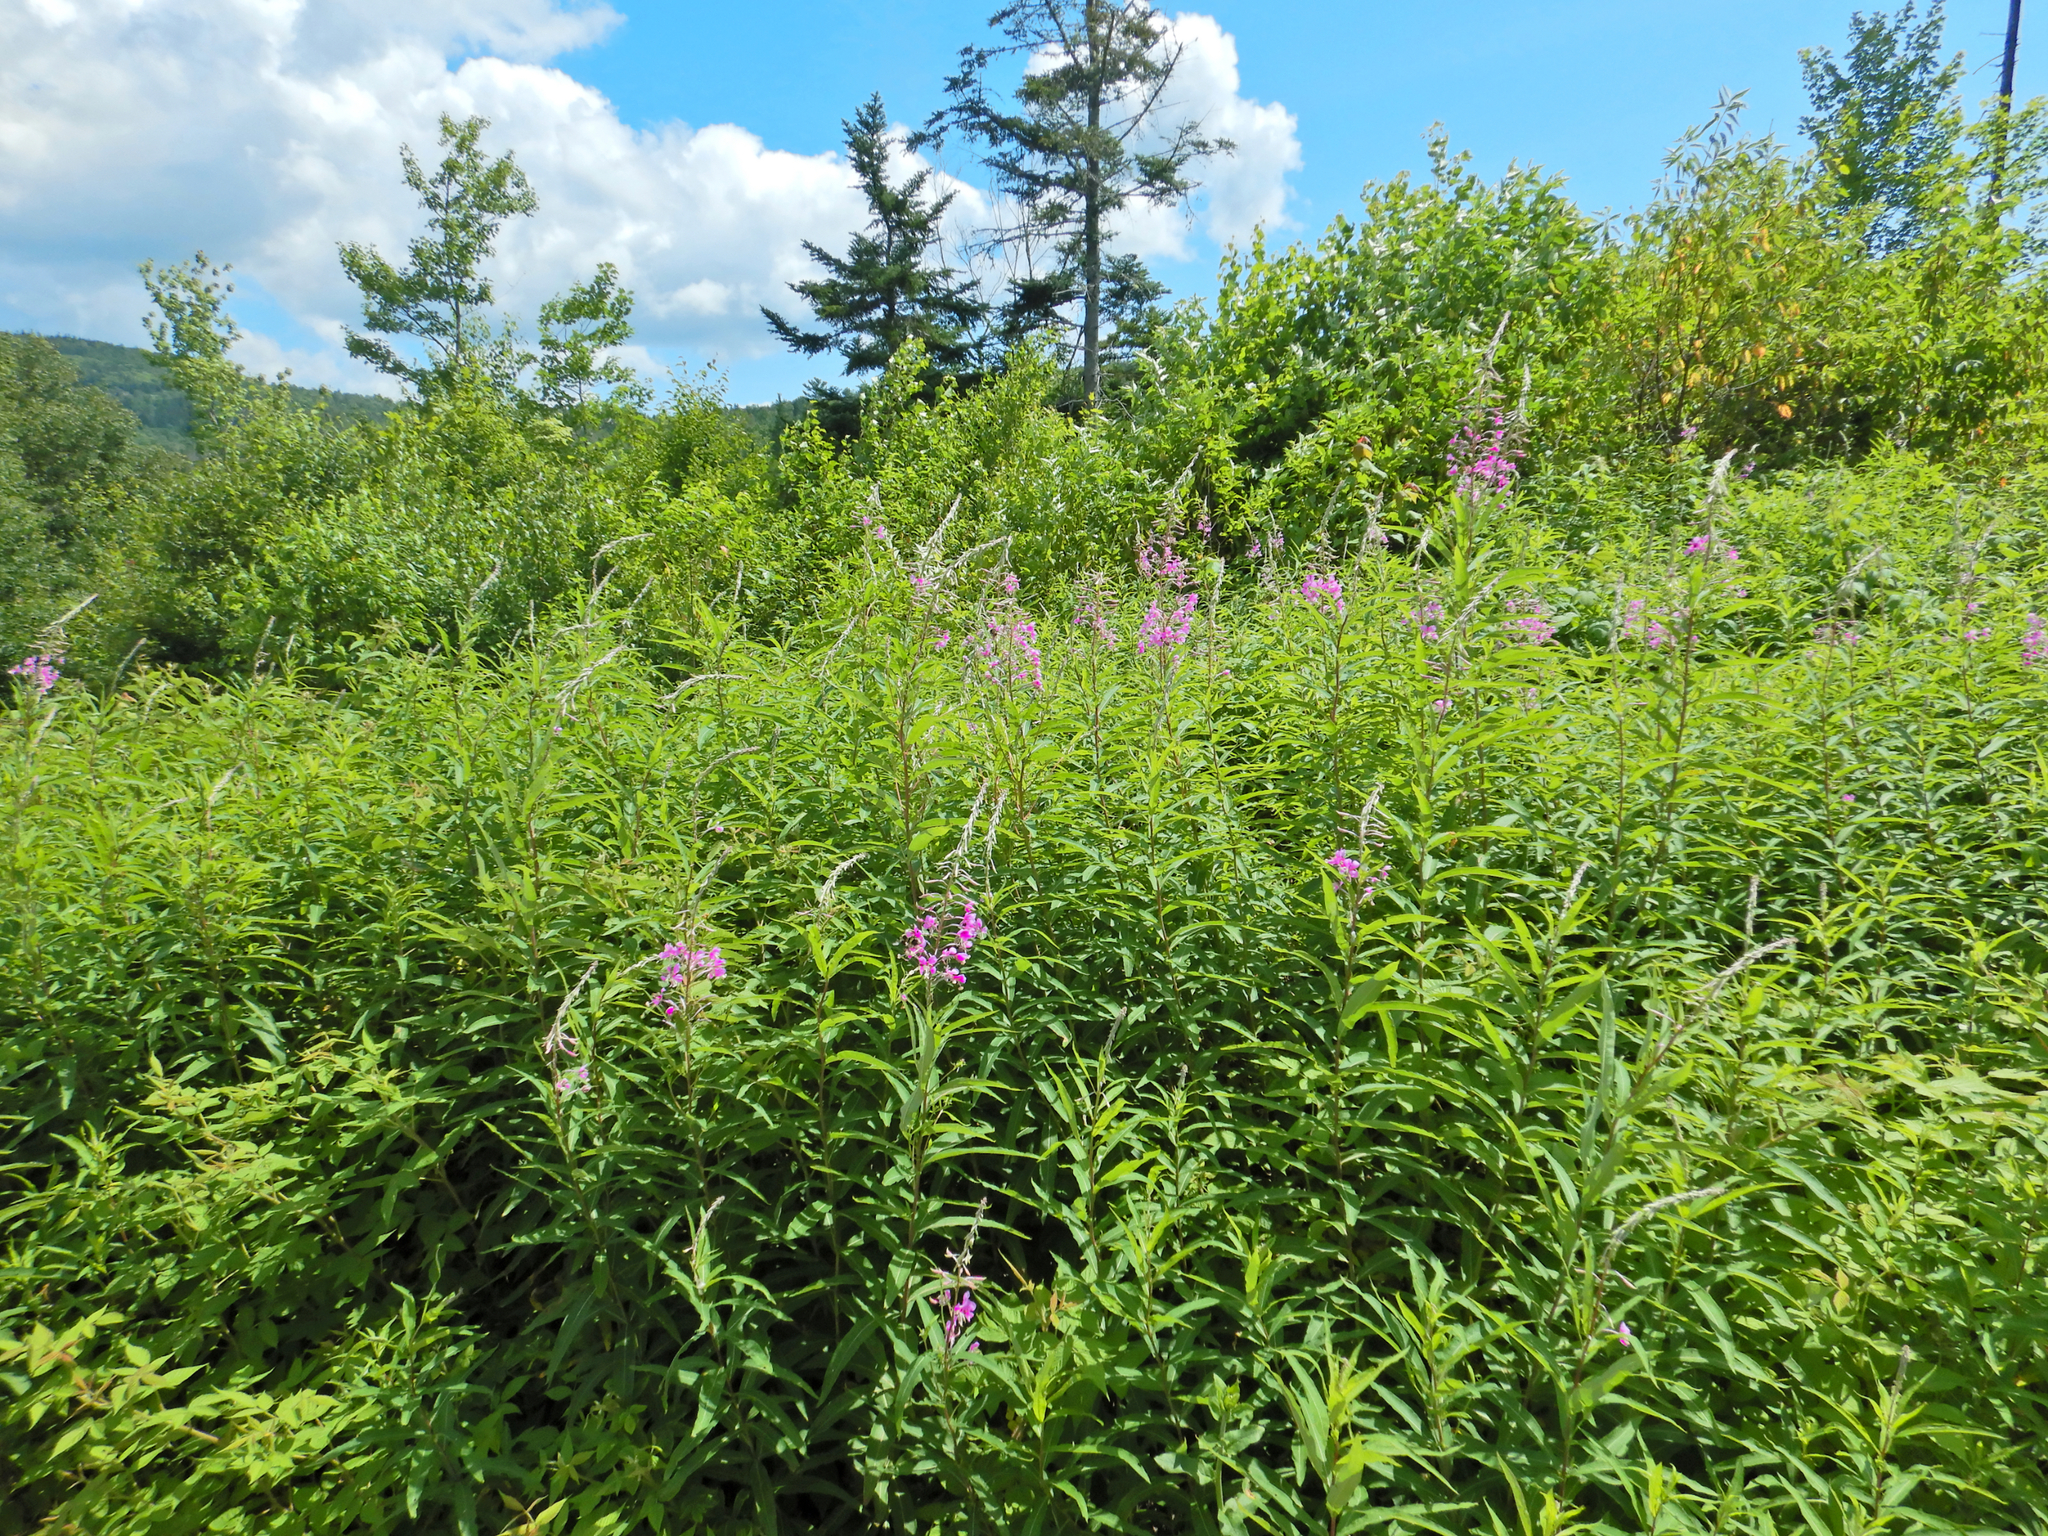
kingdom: Plantae
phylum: Tracheophyta
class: Magnoliopsida
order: Myrtales
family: Onagraceae
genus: Chamaenerion
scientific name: Chamaenerion angustifolium
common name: Fireweed
